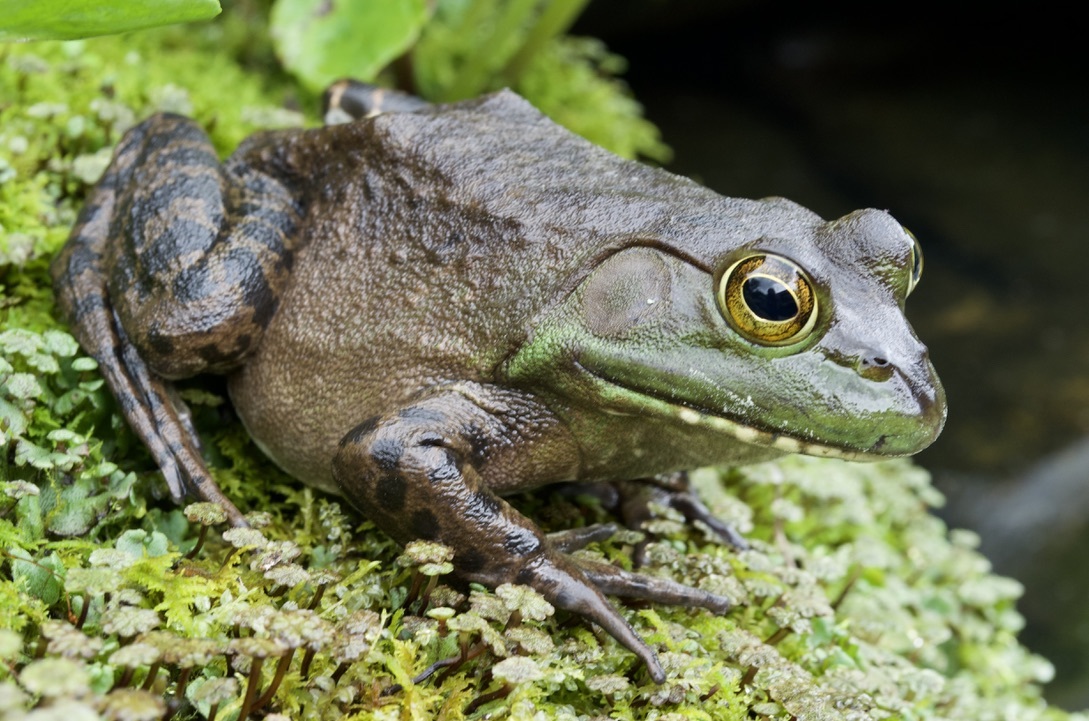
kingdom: Animalia
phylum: Chordata
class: Amphibia
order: Anura
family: Ranidae
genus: Lithobates
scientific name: Lithobates catesbeianus
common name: American bullfrog
